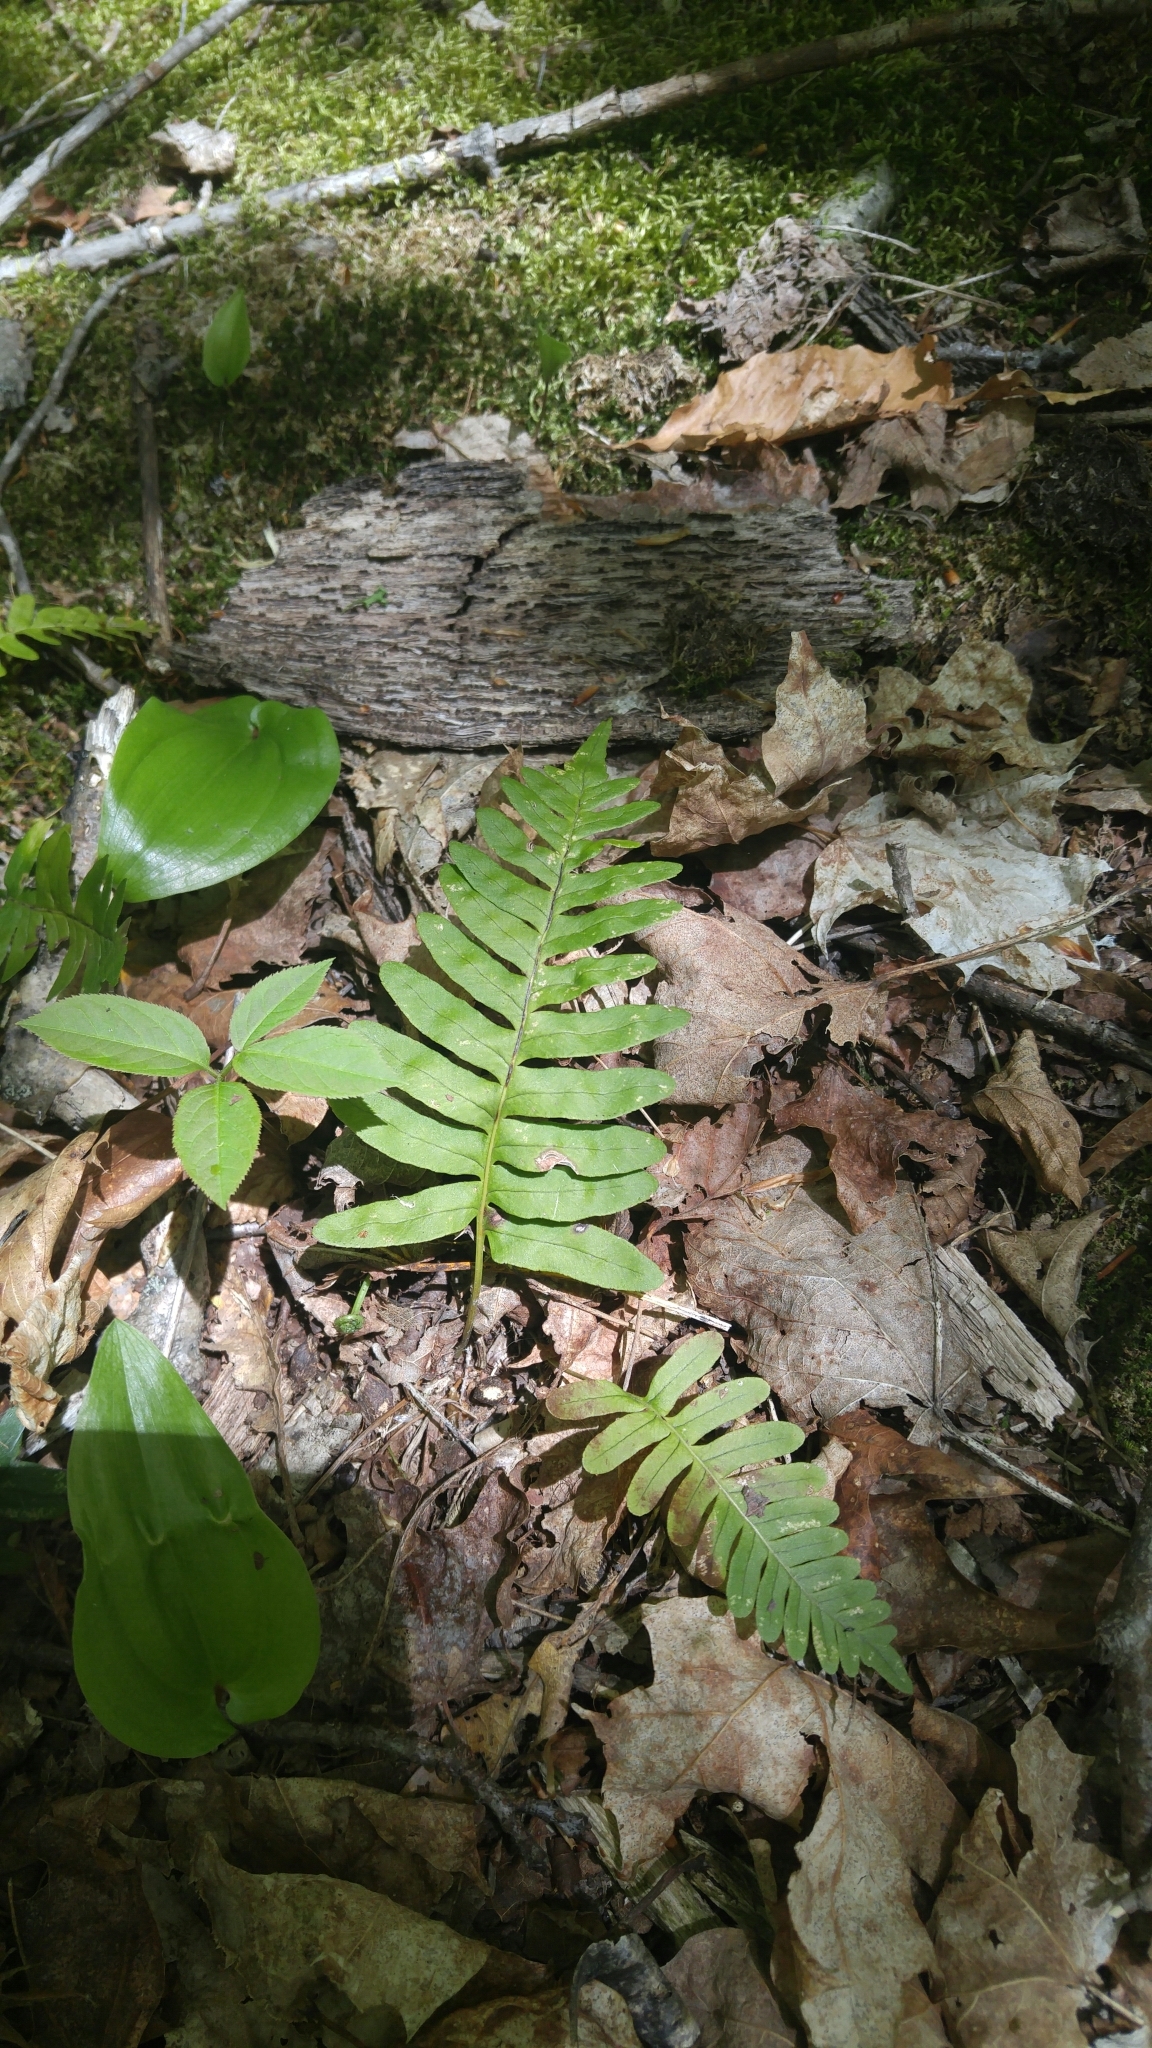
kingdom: Plantae
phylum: Tracheophyta
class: Polypodiopsida
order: Polypodiales
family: Polypodiaceae
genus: Polypodium
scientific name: Polypodium virginianum
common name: American wall fern
